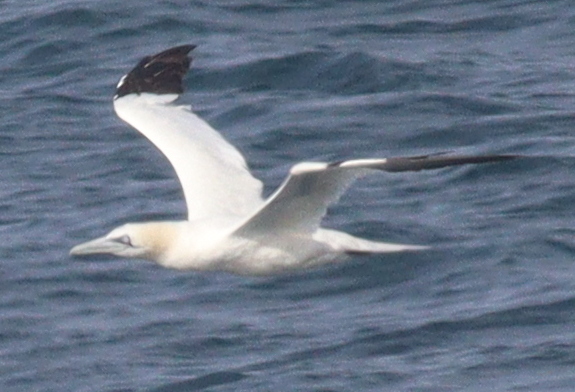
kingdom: Animalia
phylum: Chordata
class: Aves
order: Suliformes
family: Sulidae
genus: Morus
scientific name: Morus bassanus
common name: Northern gannet
